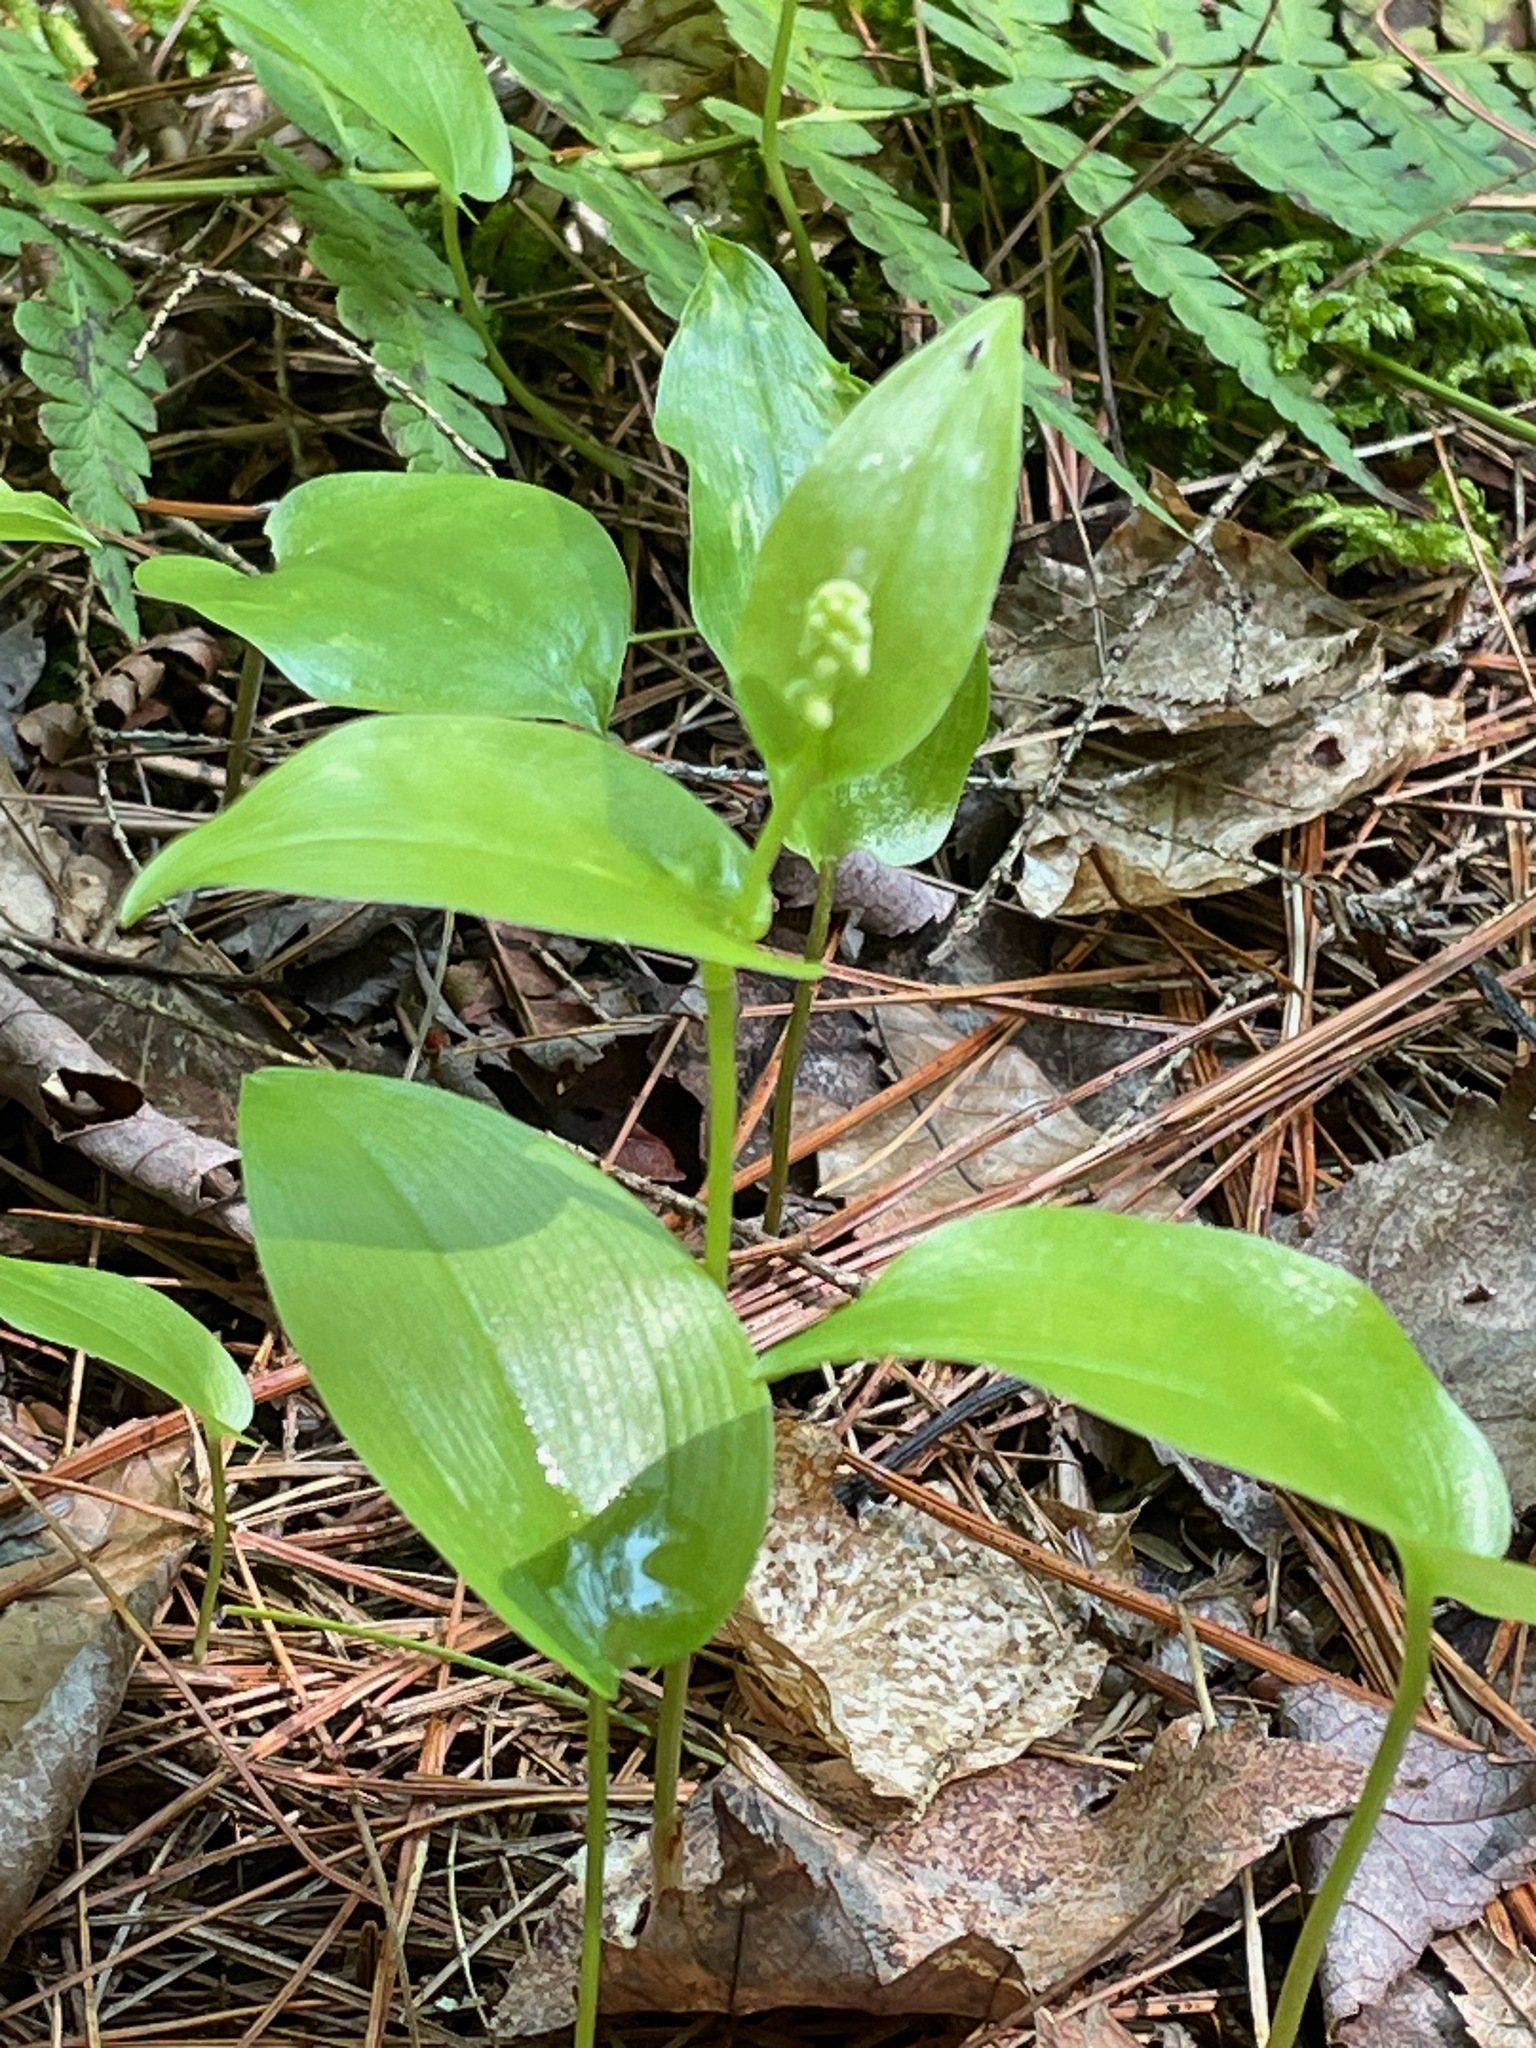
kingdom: Plantae
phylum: Tracheophyta
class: Liliopsida
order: Asparagales
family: Asparagaceae
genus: Maianthemum
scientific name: Maianthemum canadense
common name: False lily-of-the-valley
